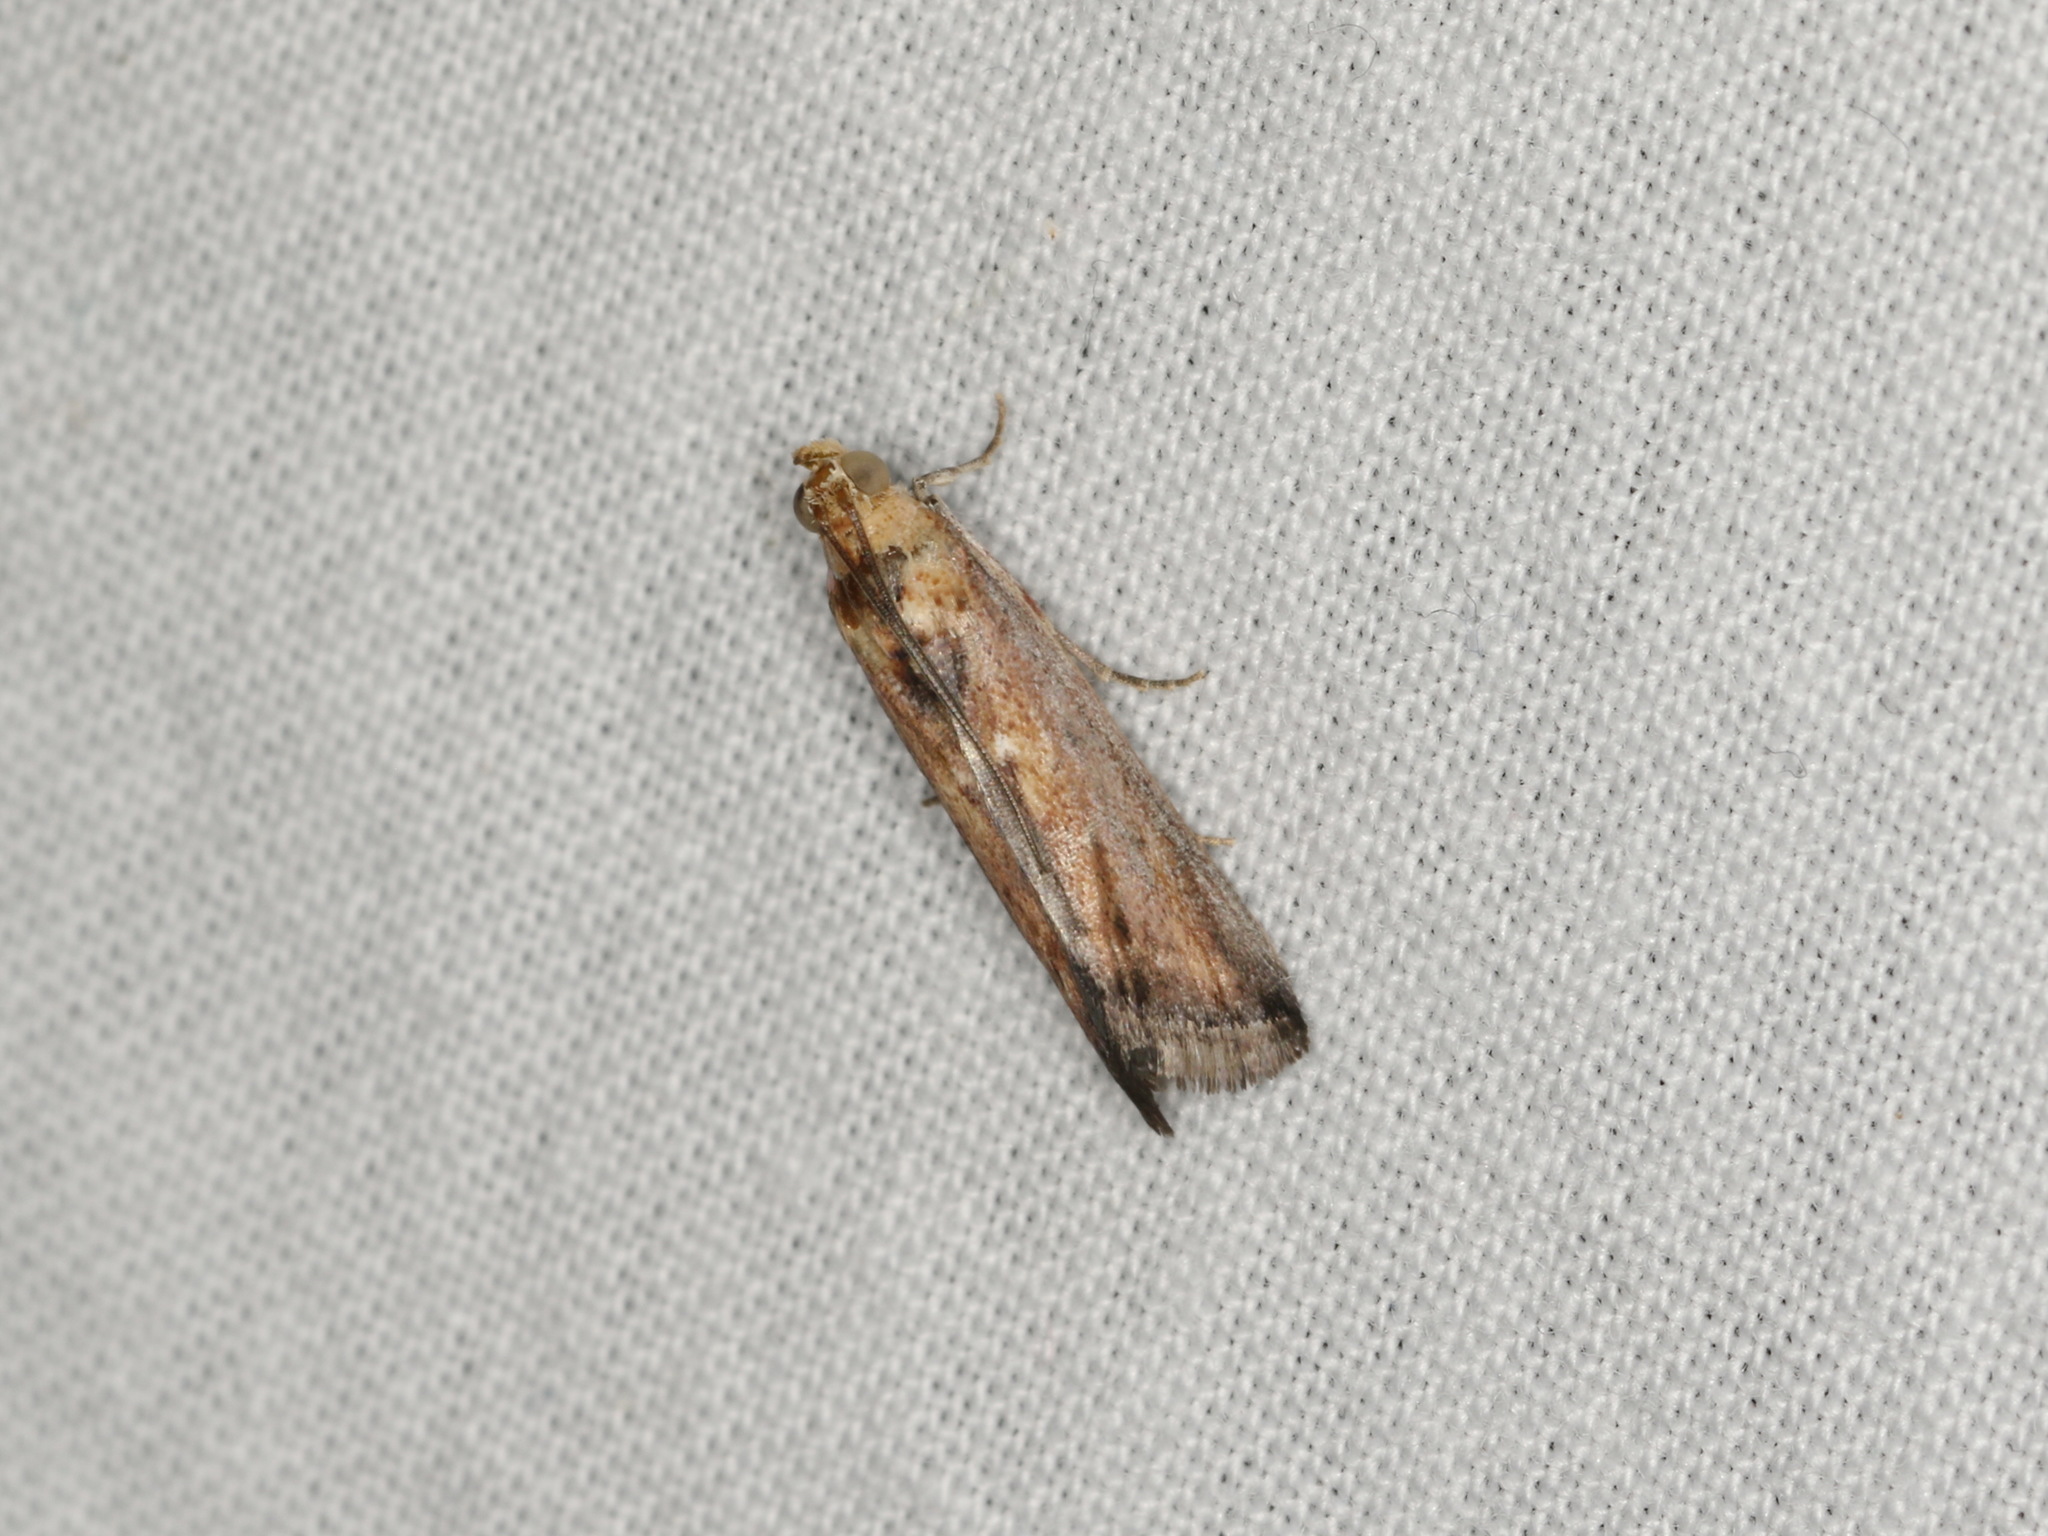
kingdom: Animalia
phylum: Arthropoda
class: Insecta
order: Lepidoptera
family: Pyralidae
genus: Morosaphycita
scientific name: Morosaphycita oculiferella
